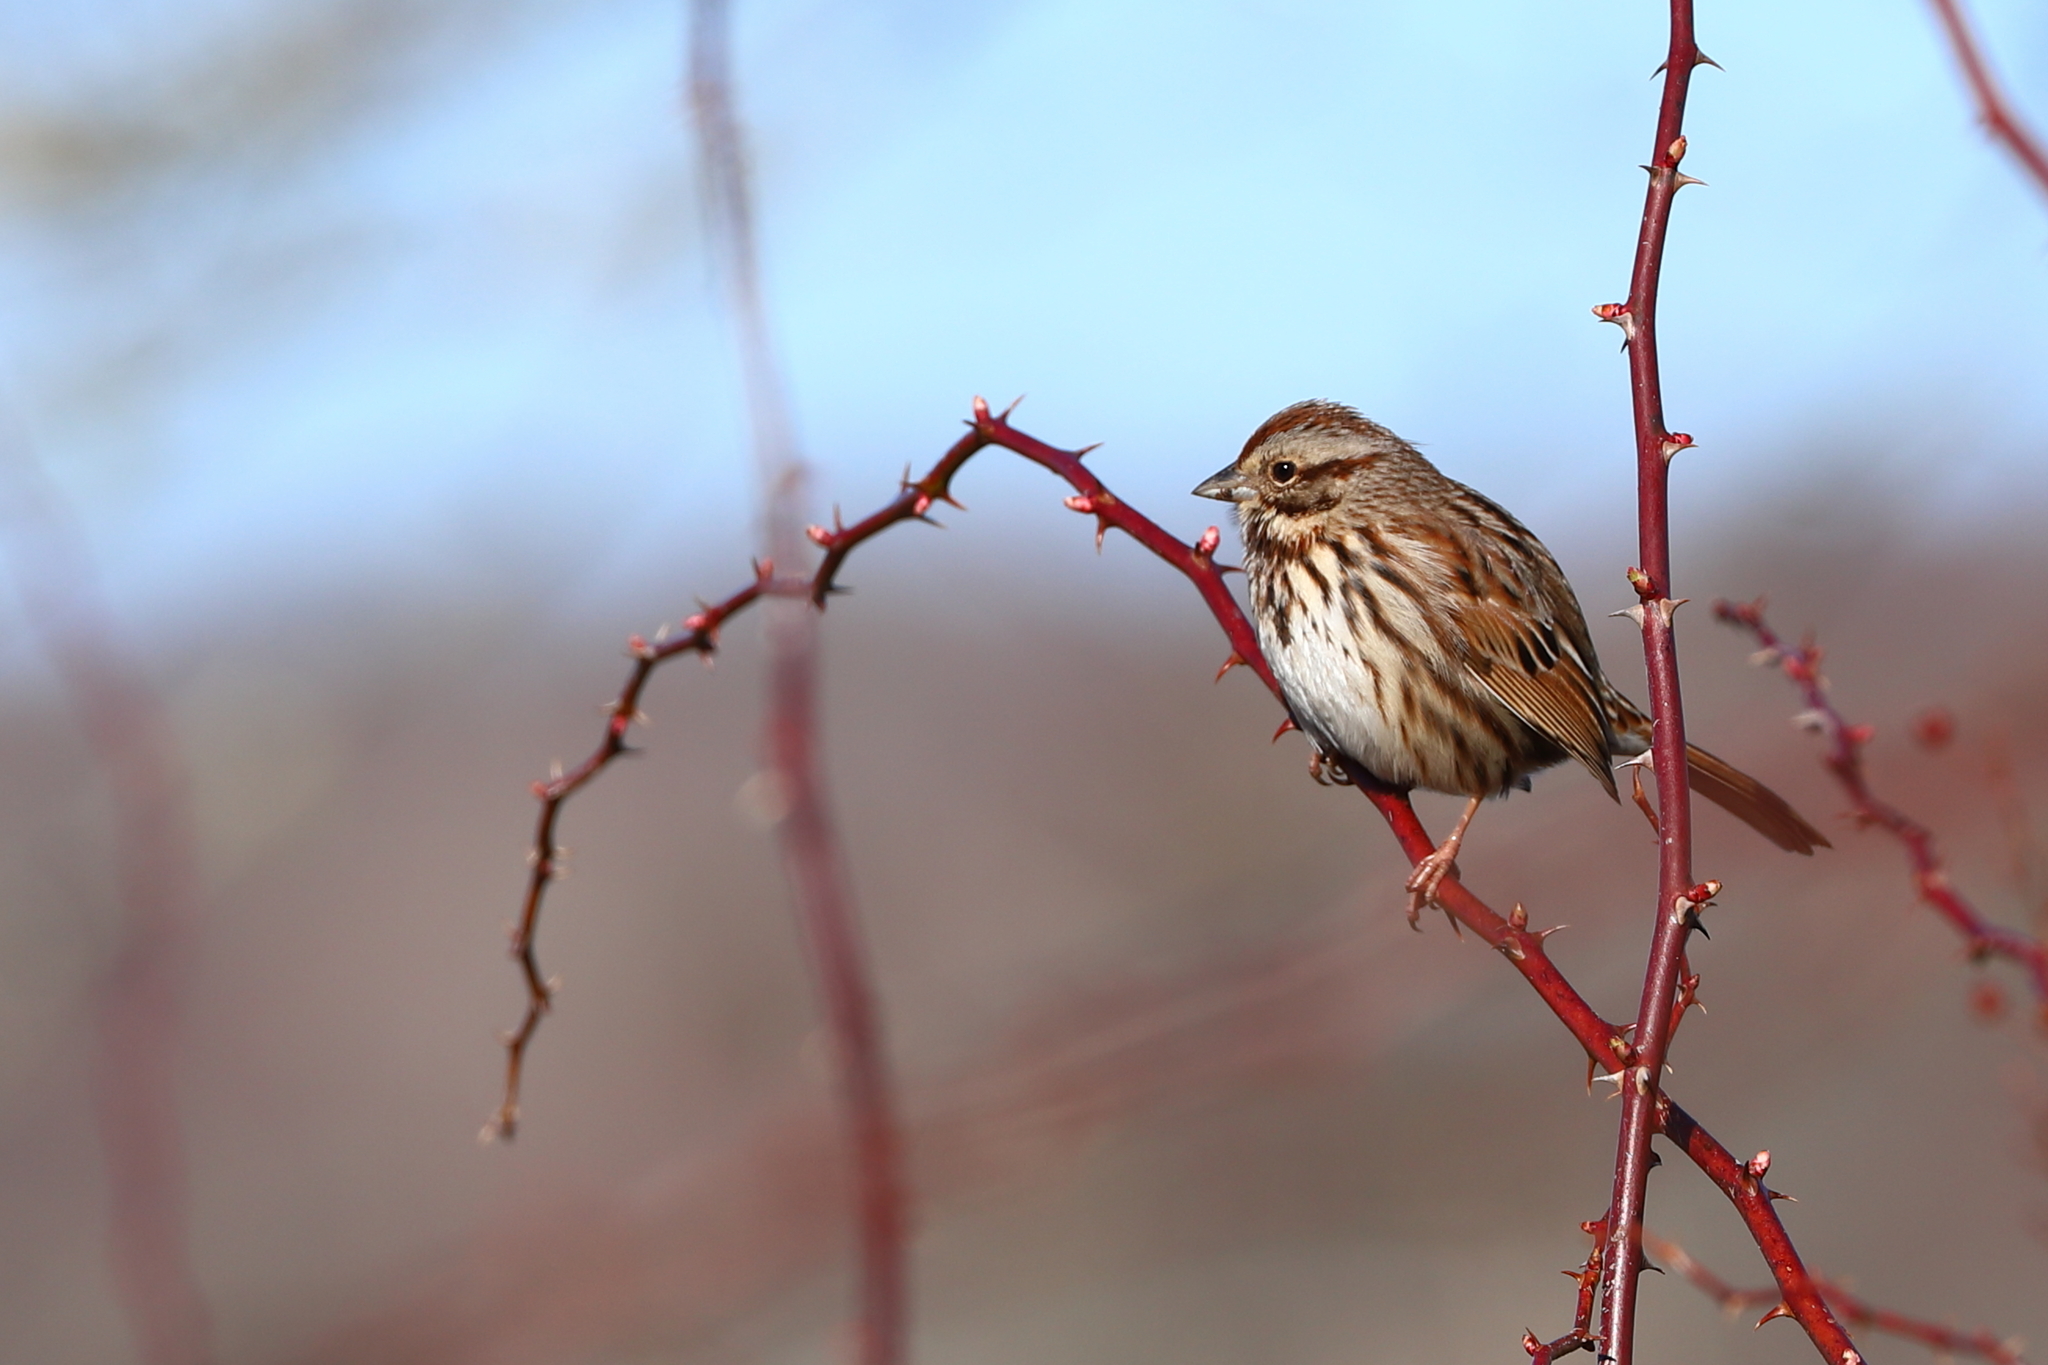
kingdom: Animalia
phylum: Chordata
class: Aves
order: Passeriformes
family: Passerellidae
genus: Melospiza
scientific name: Melospiza melodia
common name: Song sparrow
